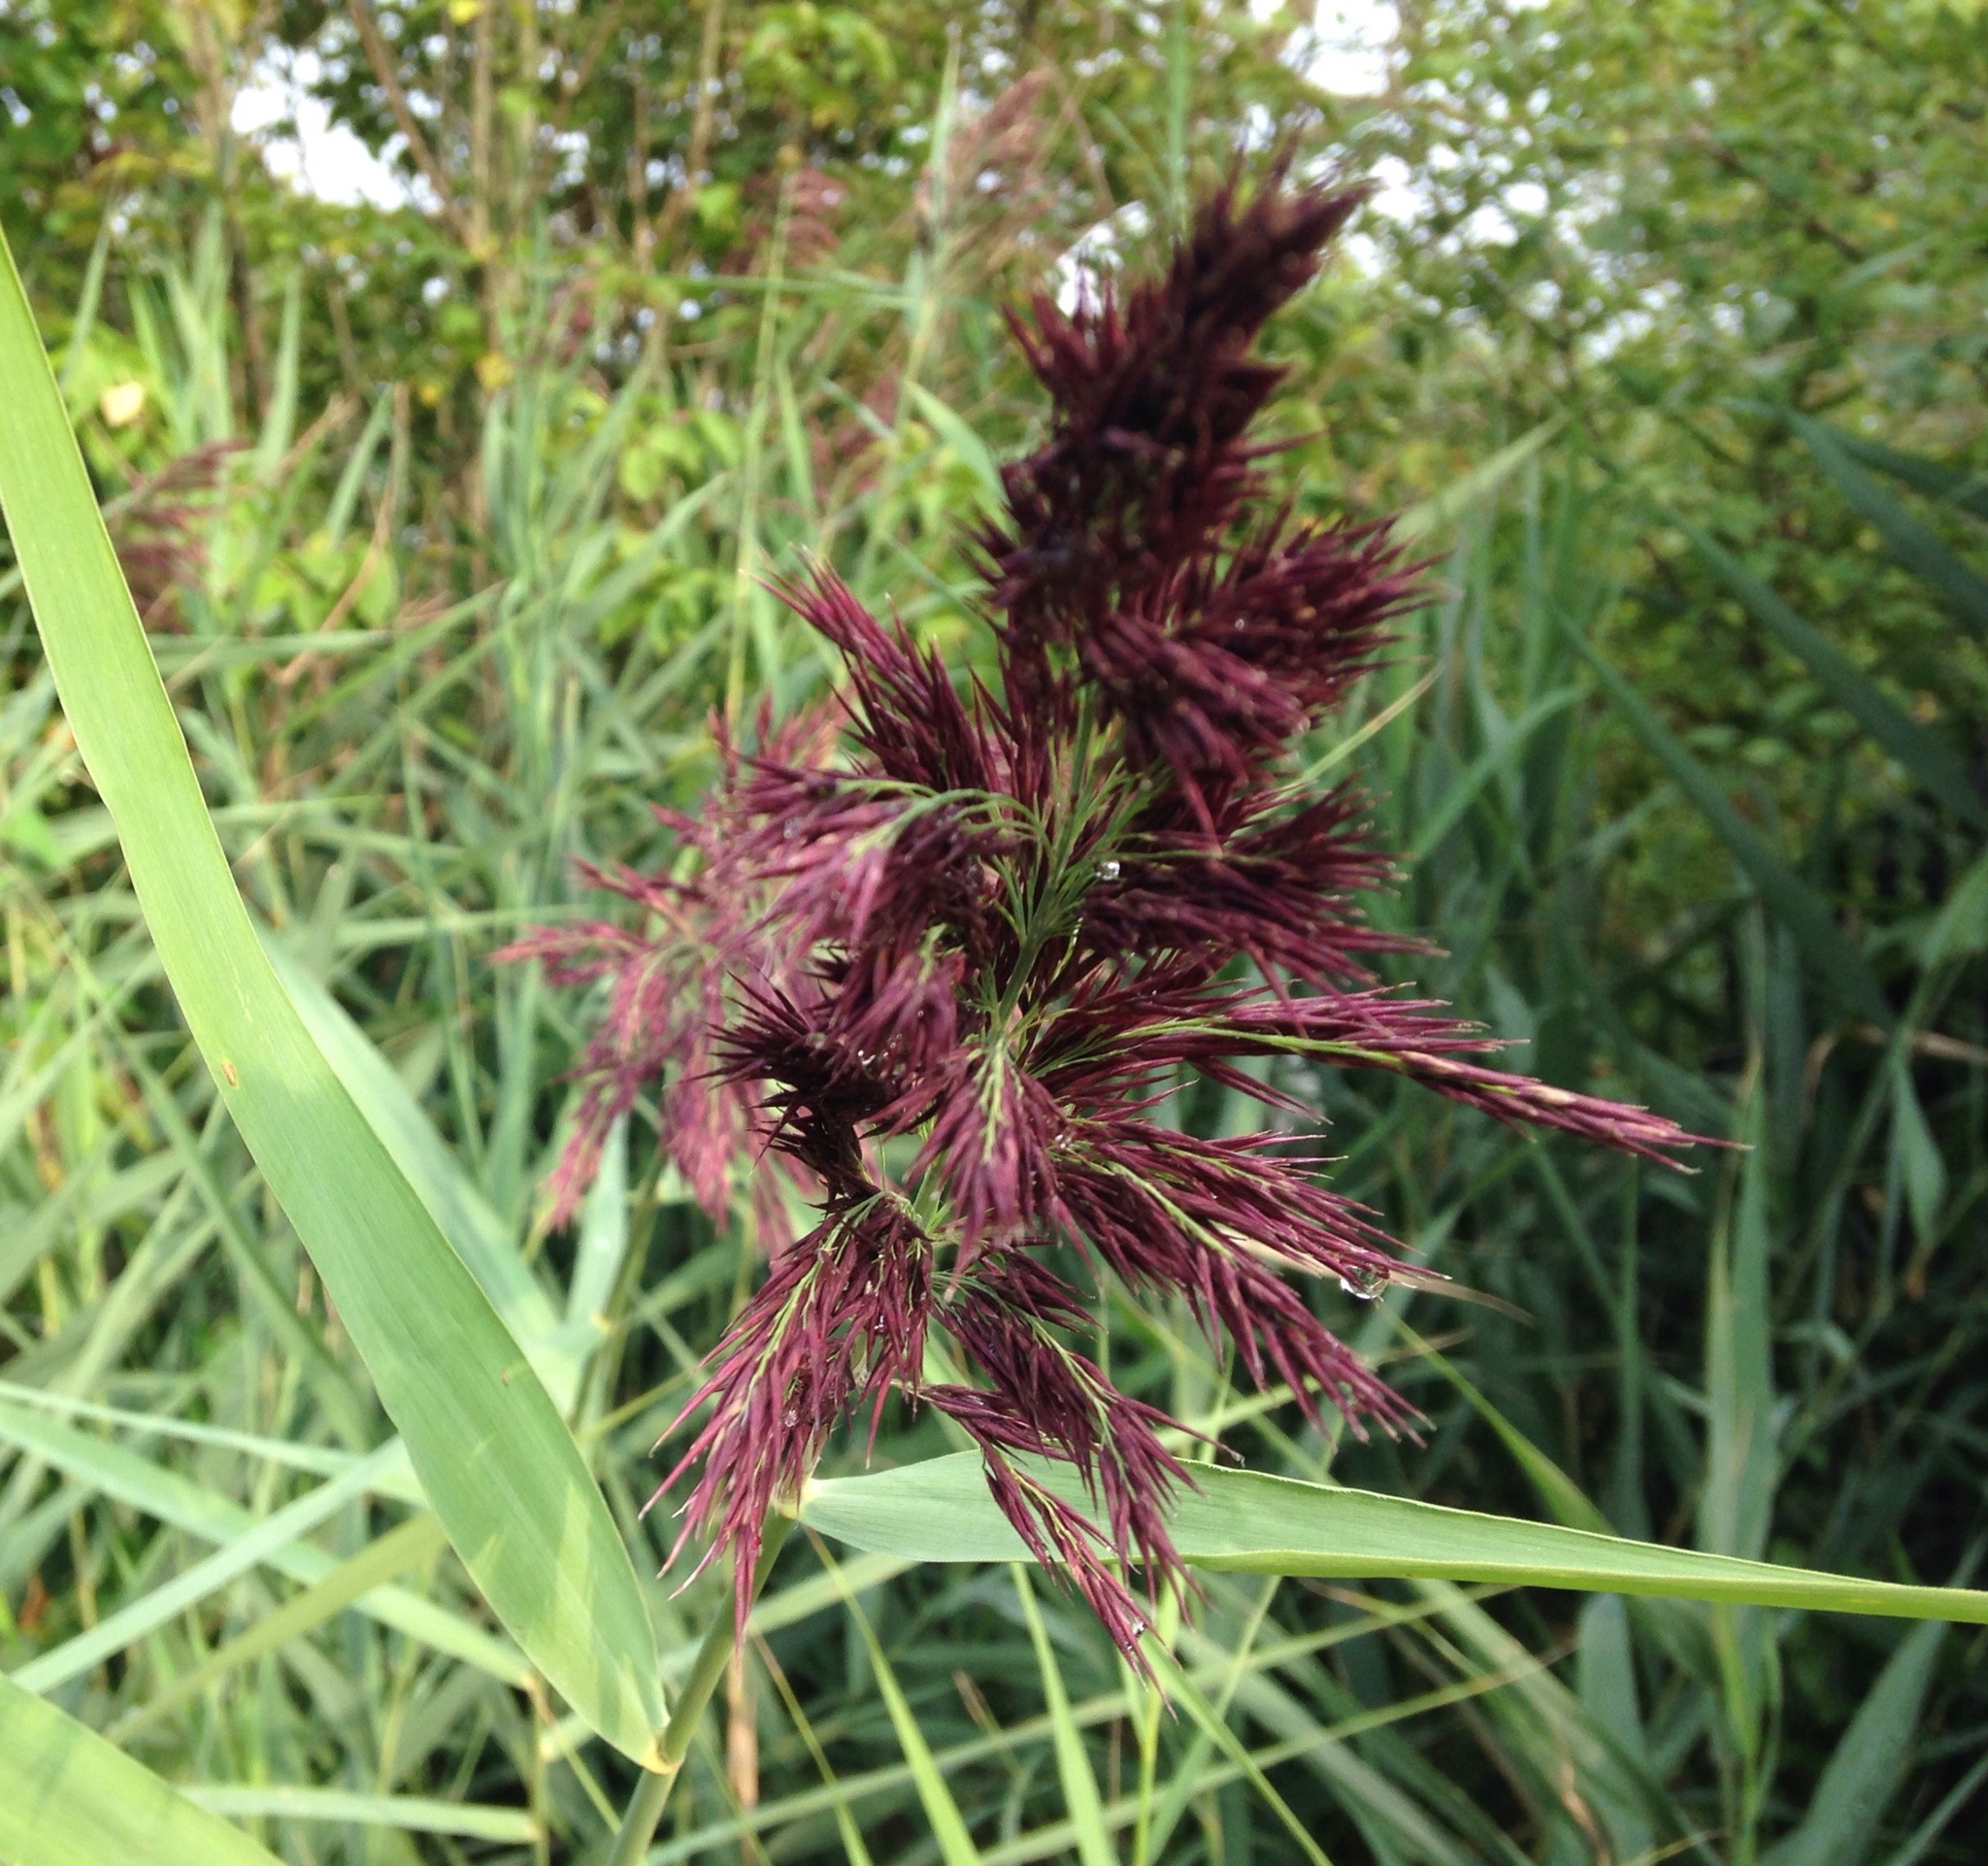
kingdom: Plantae
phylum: Tracheophyta
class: Liliopsida
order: Poales
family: Poaceae
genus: Phragmites
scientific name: Phragmites australis
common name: Common reed
